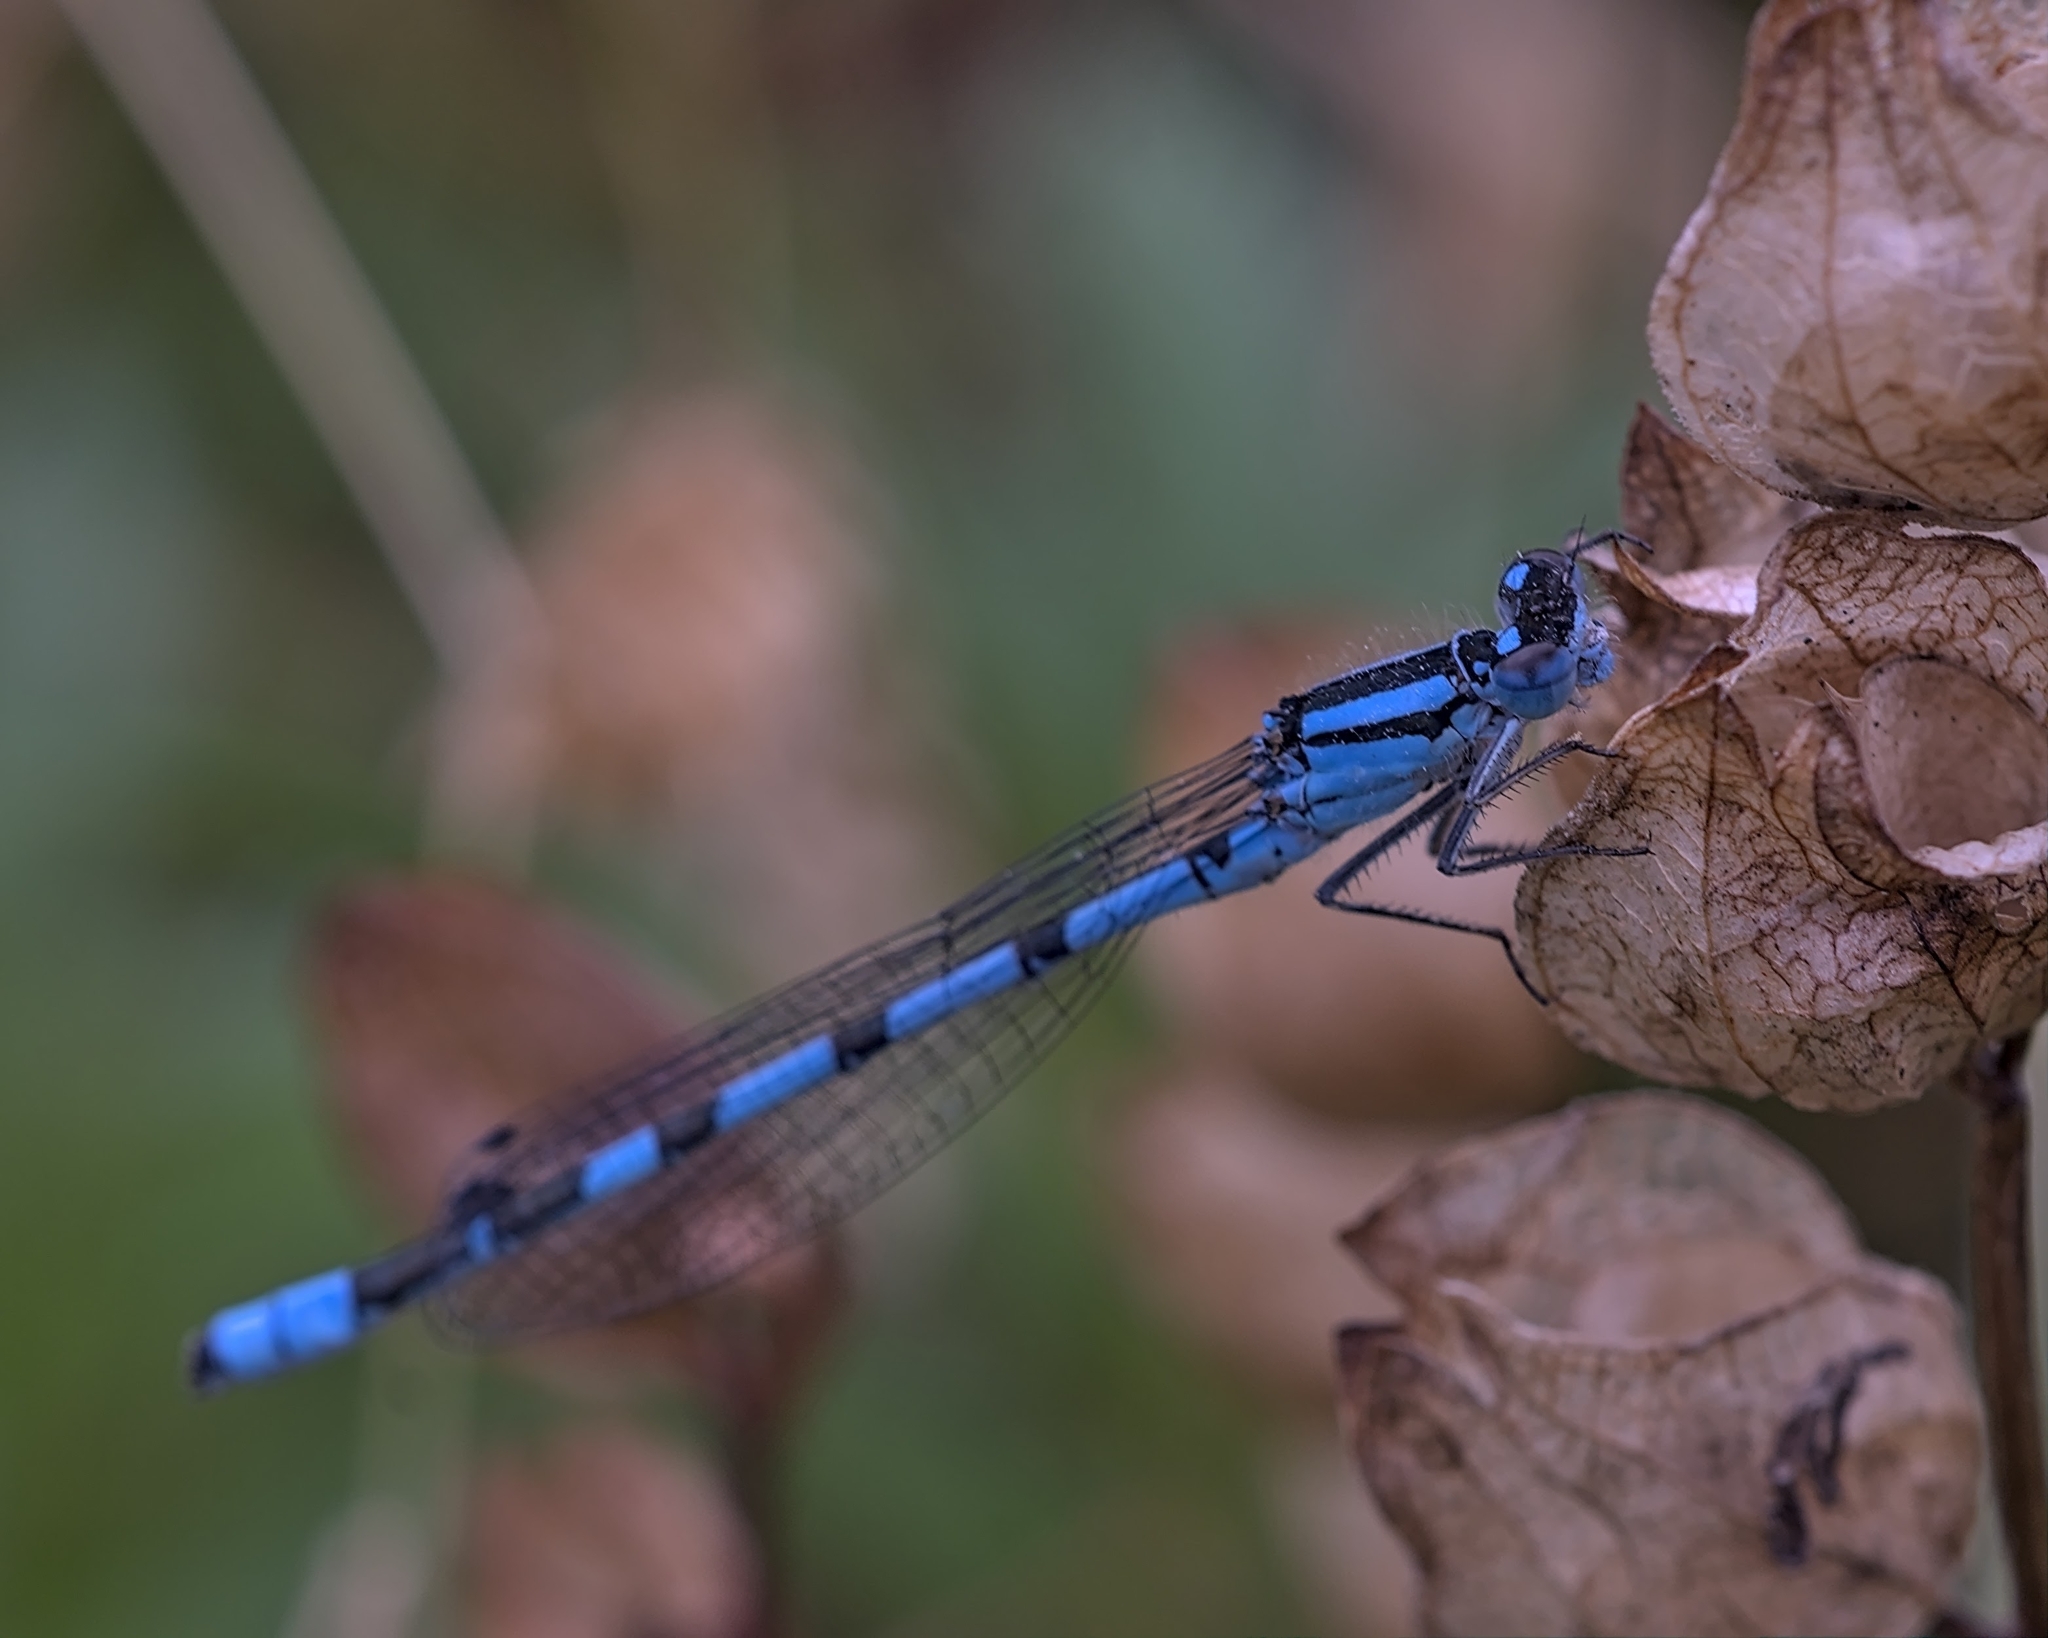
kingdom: Animalia
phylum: Arthropoda
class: Insecta
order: Odonata
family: Coenagrionidae
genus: Enallagma
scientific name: Enallagma cyathigerum
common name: Common blue damselfly
